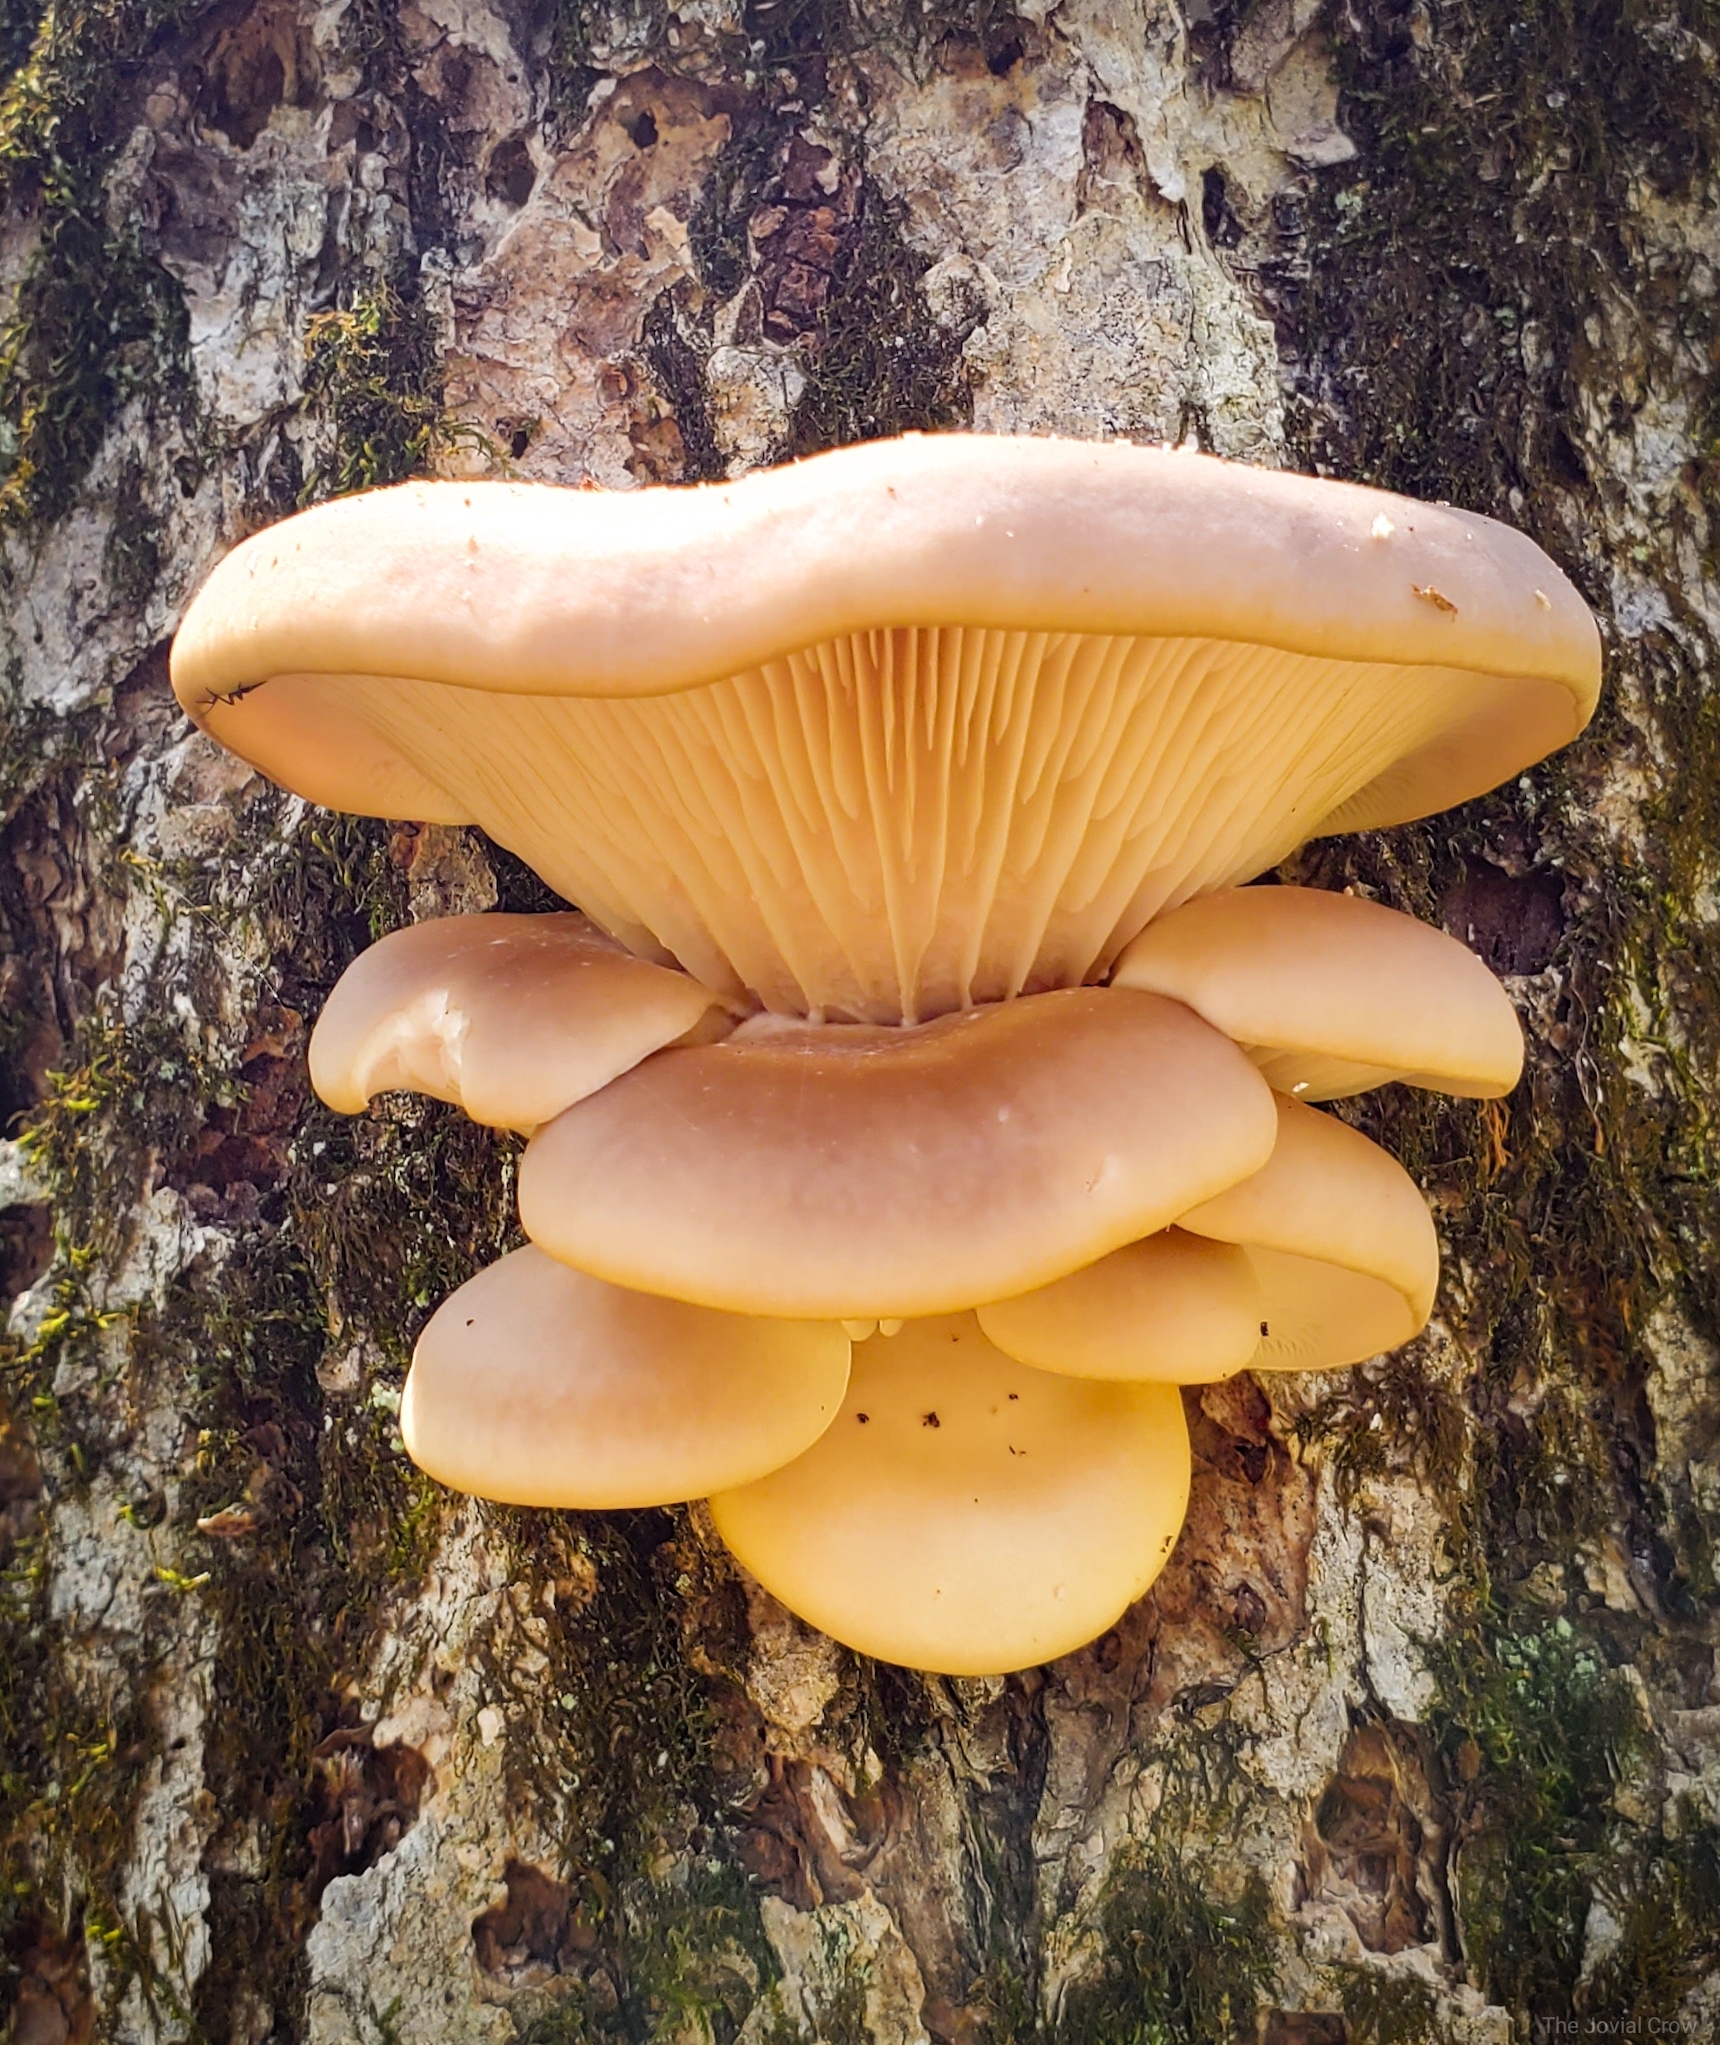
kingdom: Fungi
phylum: Basidiomycota
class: Agaricomycetes
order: Agaricales
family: Pleurotaceae
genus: Pleurotus
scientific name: Pleurotus ostreatus
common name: Oyster mushroom
